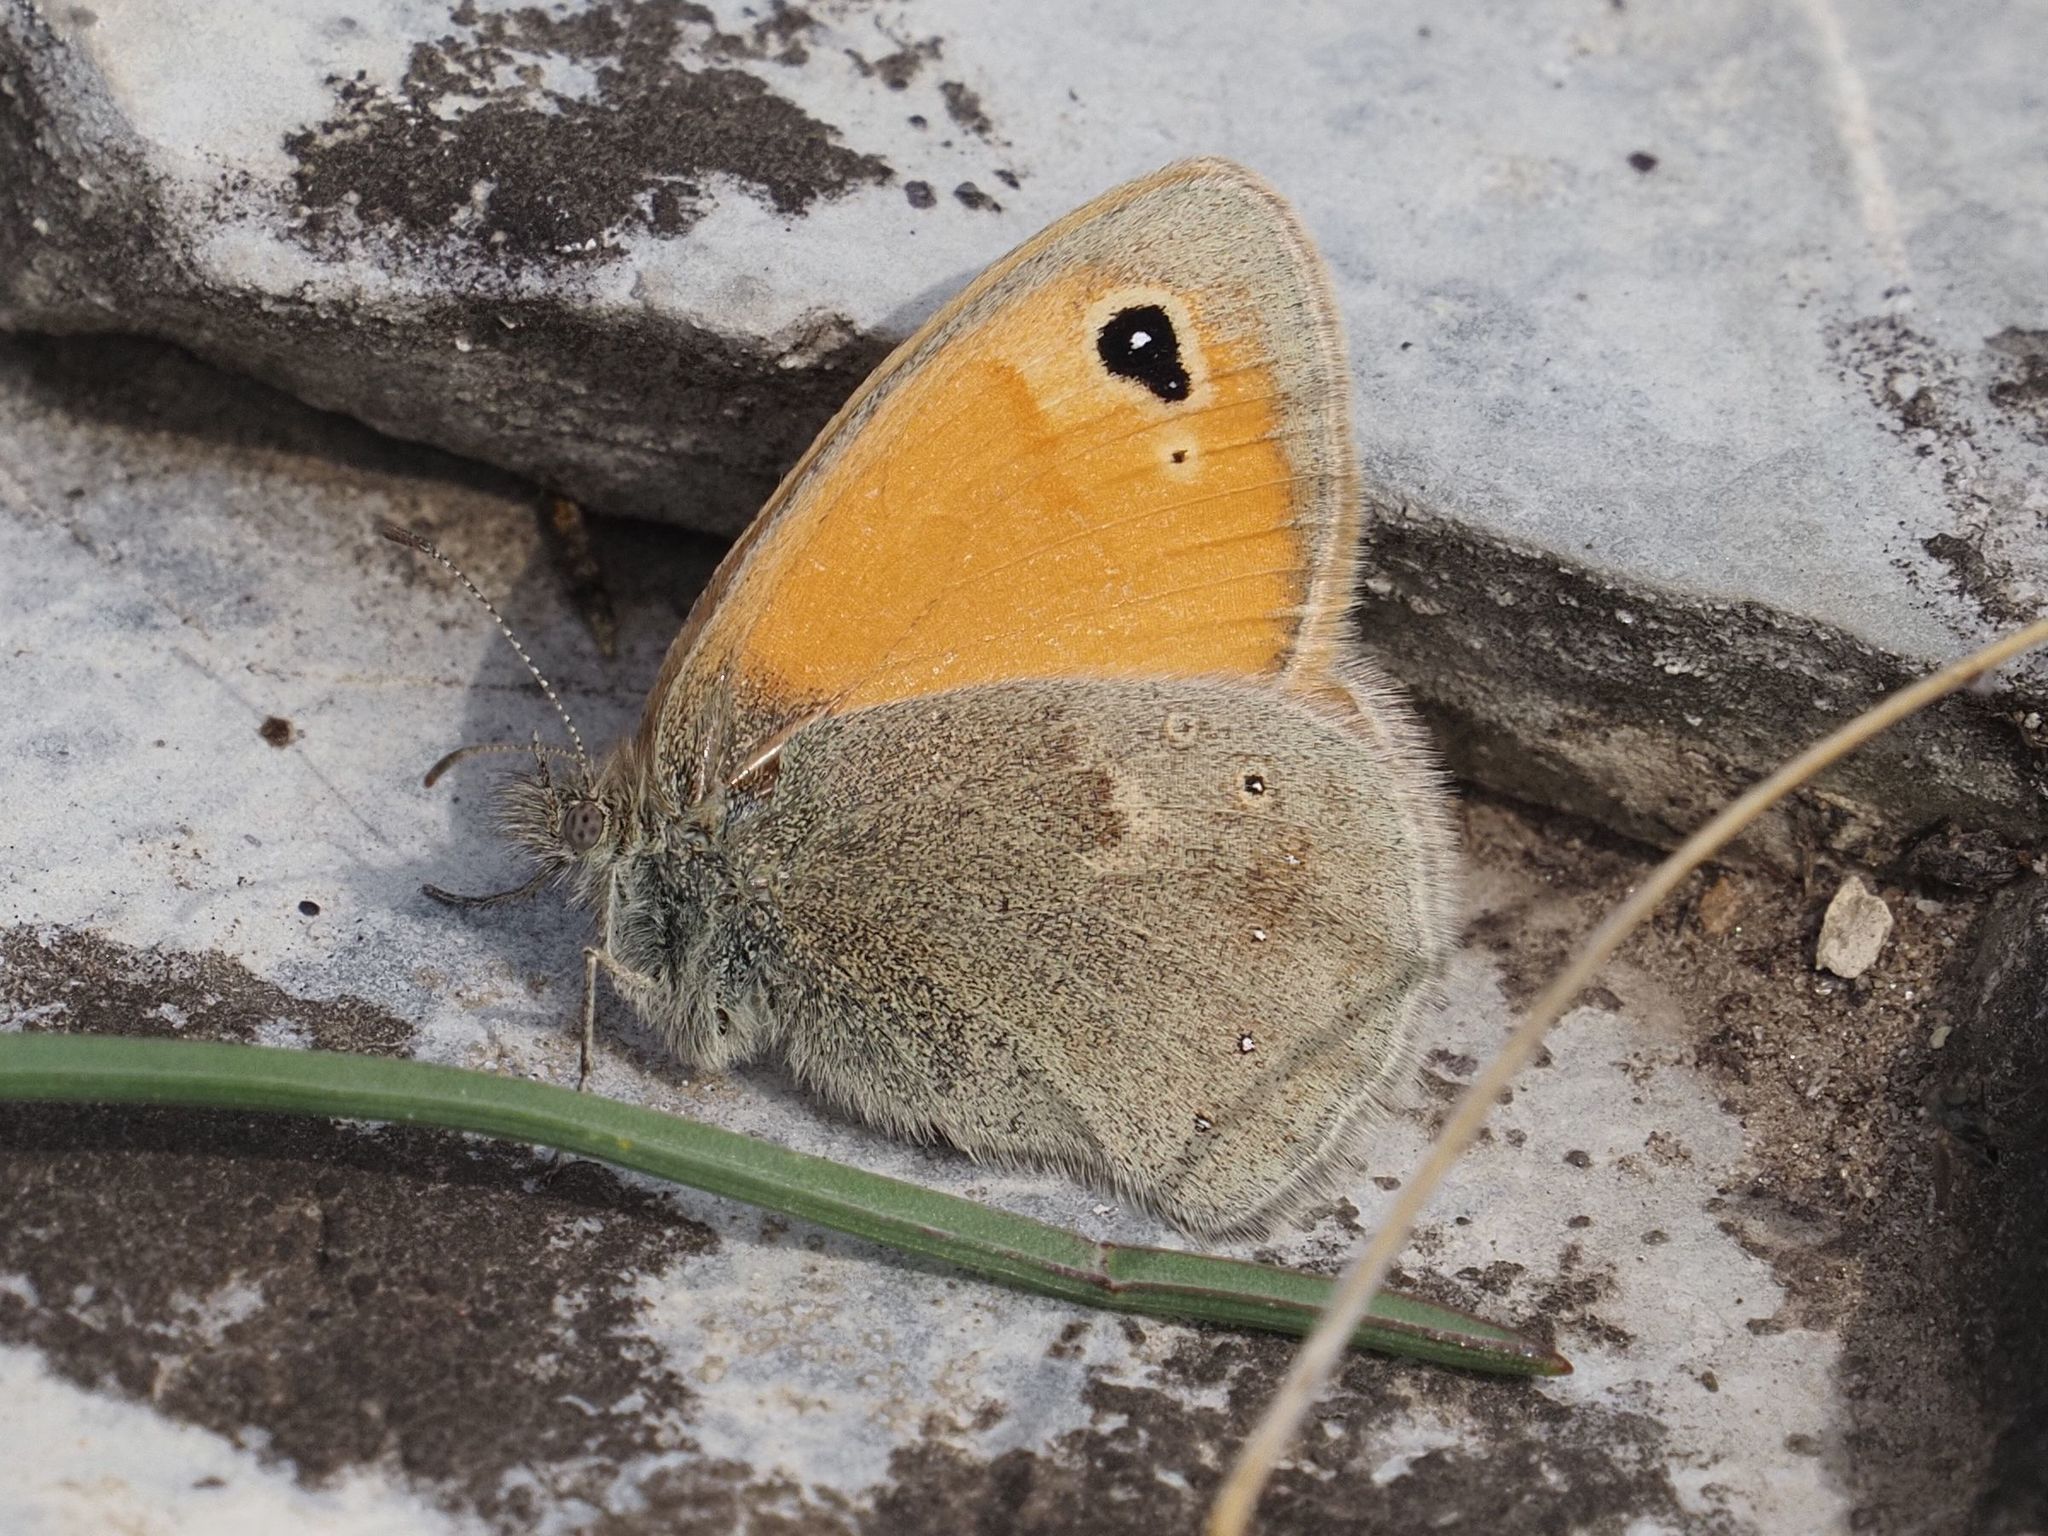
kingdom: Animalia
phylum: Arthropoda
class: Insecta
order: Lepidoptera
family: Nymphalidae
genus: Coenonympha
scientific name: Coenonympha pamphilus
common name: Small heath
